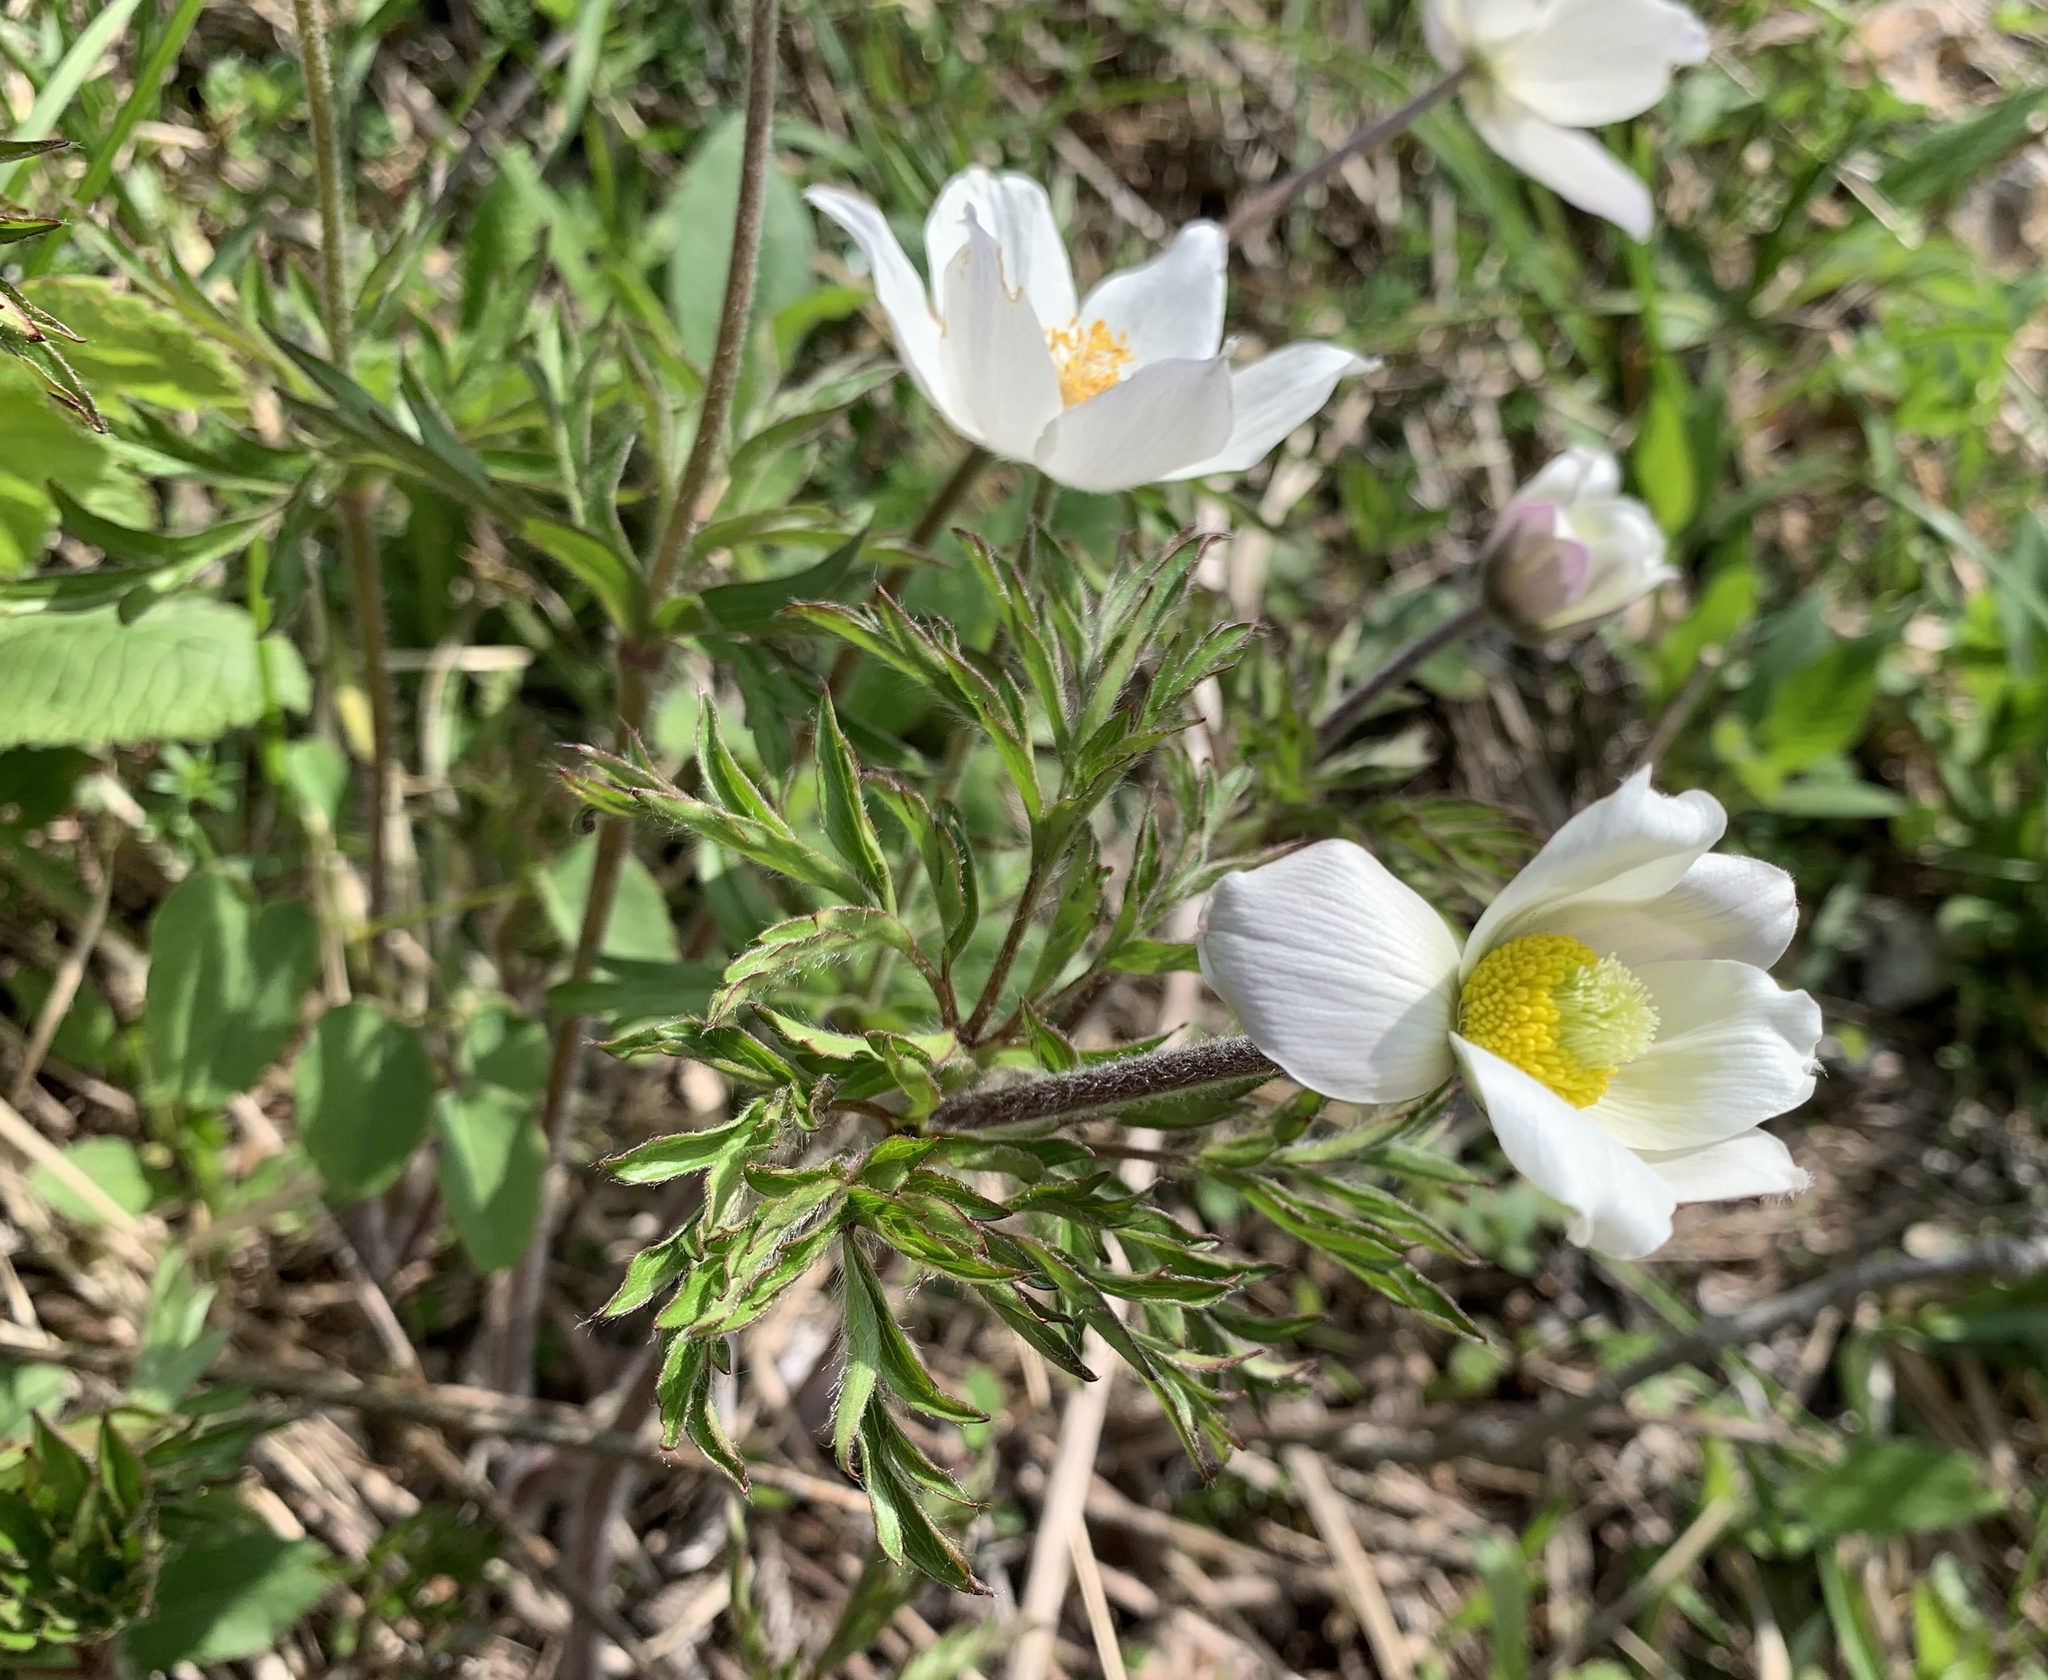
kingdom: Plantae
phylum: Tracheophyta
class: Magnoliopsida
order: Ranunculales
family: Ranunculaceae
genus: Pulsatilla
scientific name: Pulsatilla alpina
